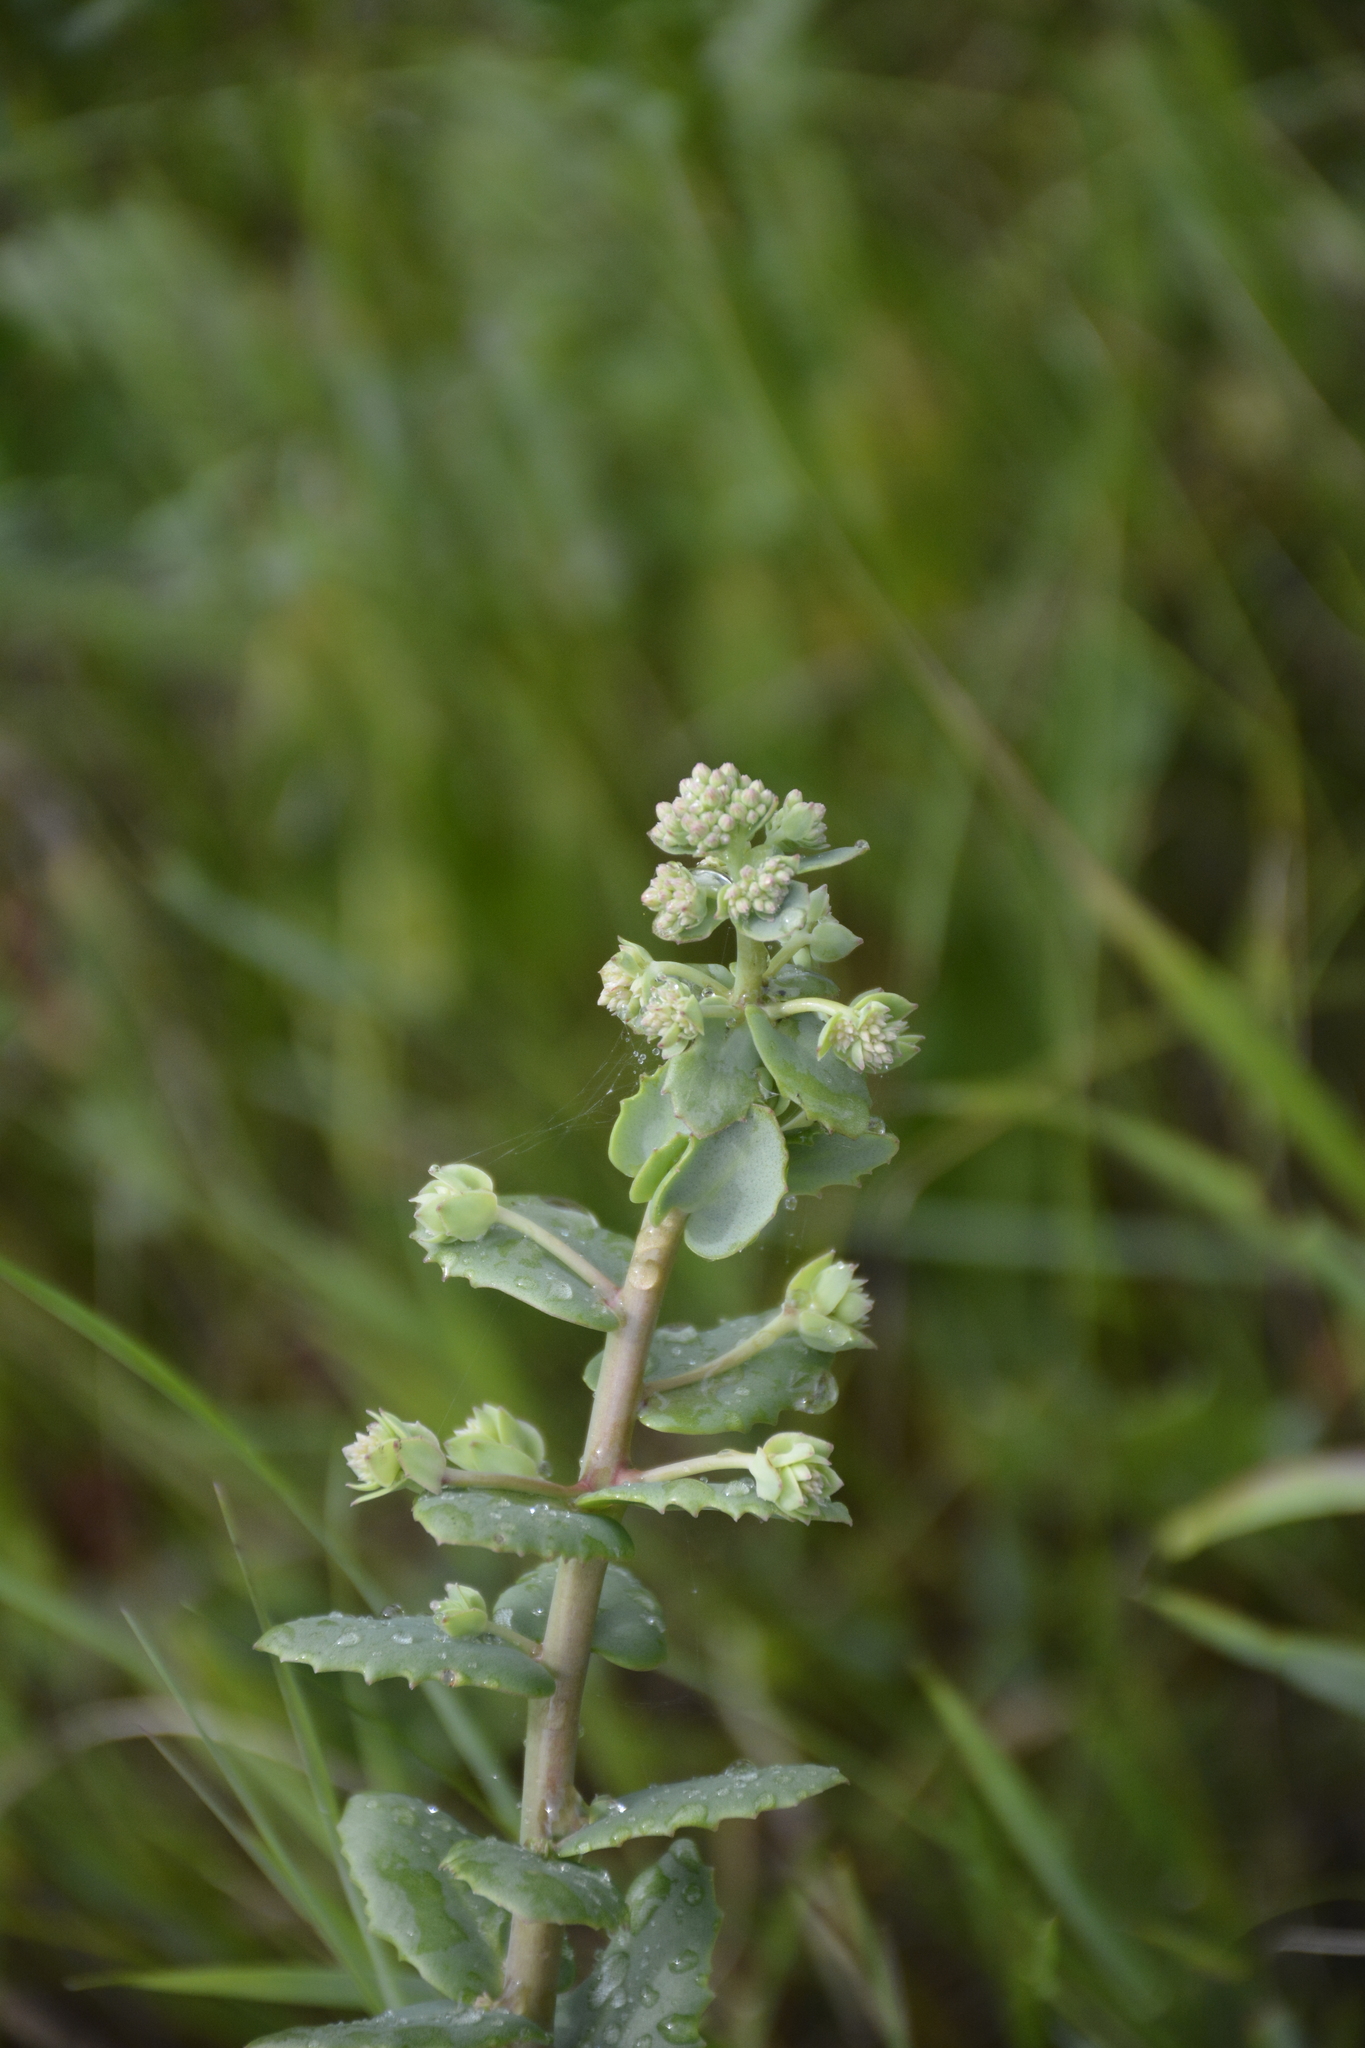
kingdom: Plantae
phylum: Tracheophyta
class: Magnoliopsida
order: Saxifragales
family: Crassulaceae
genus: Hylotelephium
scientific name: Hylotelephium maximum
